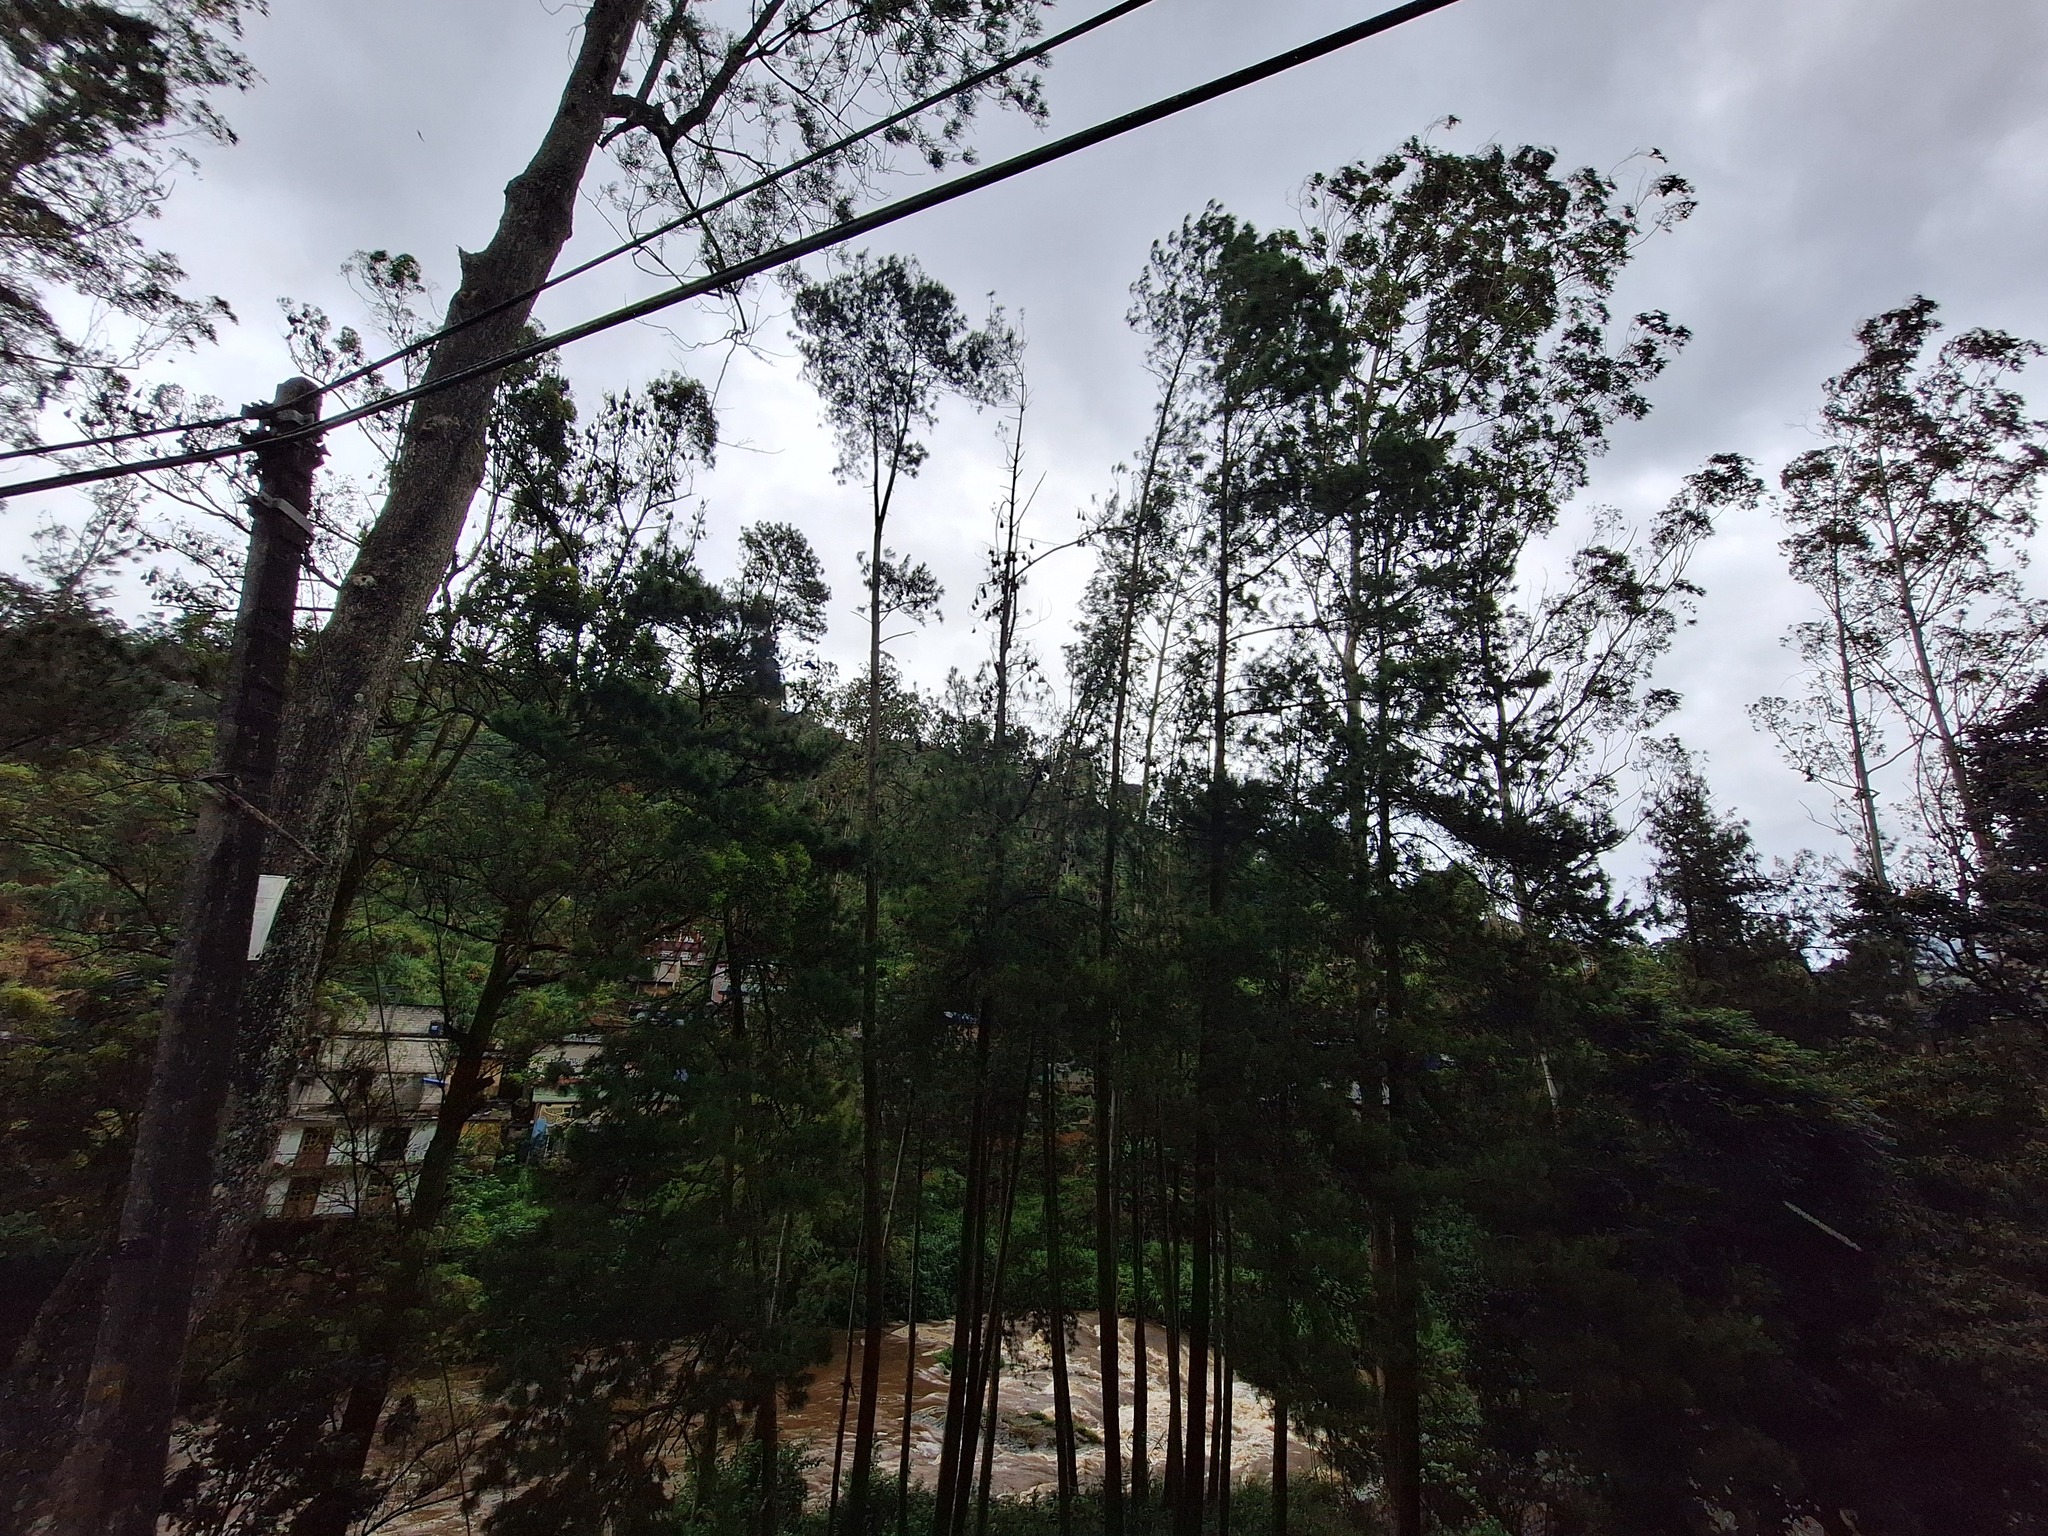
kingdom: Animalia
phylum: Chordata
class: Mammalia
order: Chiroptera
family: Pteropodidae
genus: Pteropus
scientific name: Pteropus vampyrus
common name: Large flying fox
